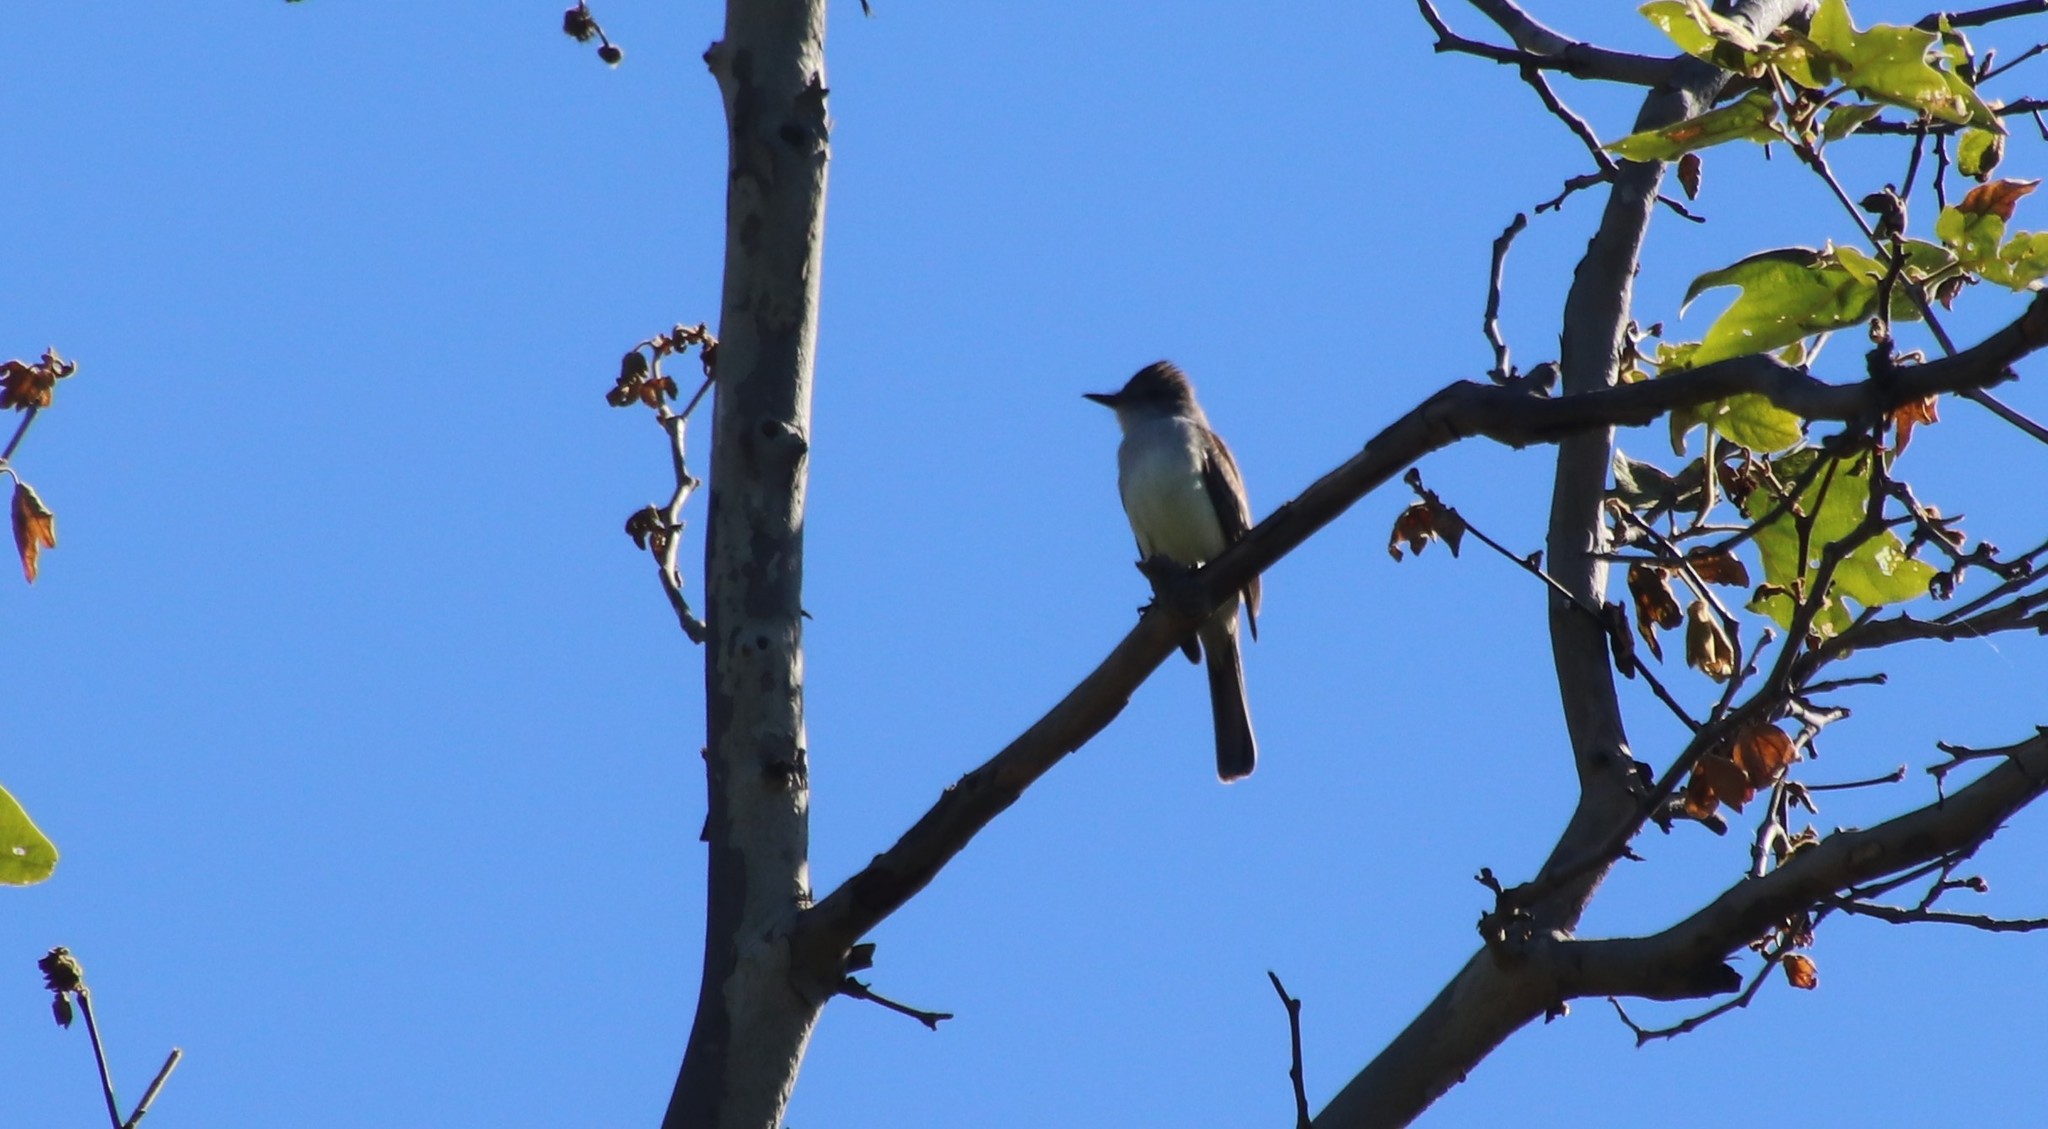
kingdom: Animalia
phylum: Chordata
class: Aves
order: Passeriformes
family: Tyrannidae
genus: Myiarchus
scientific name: Myiarchus cinerascens
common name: Ash-throated flycatcher
